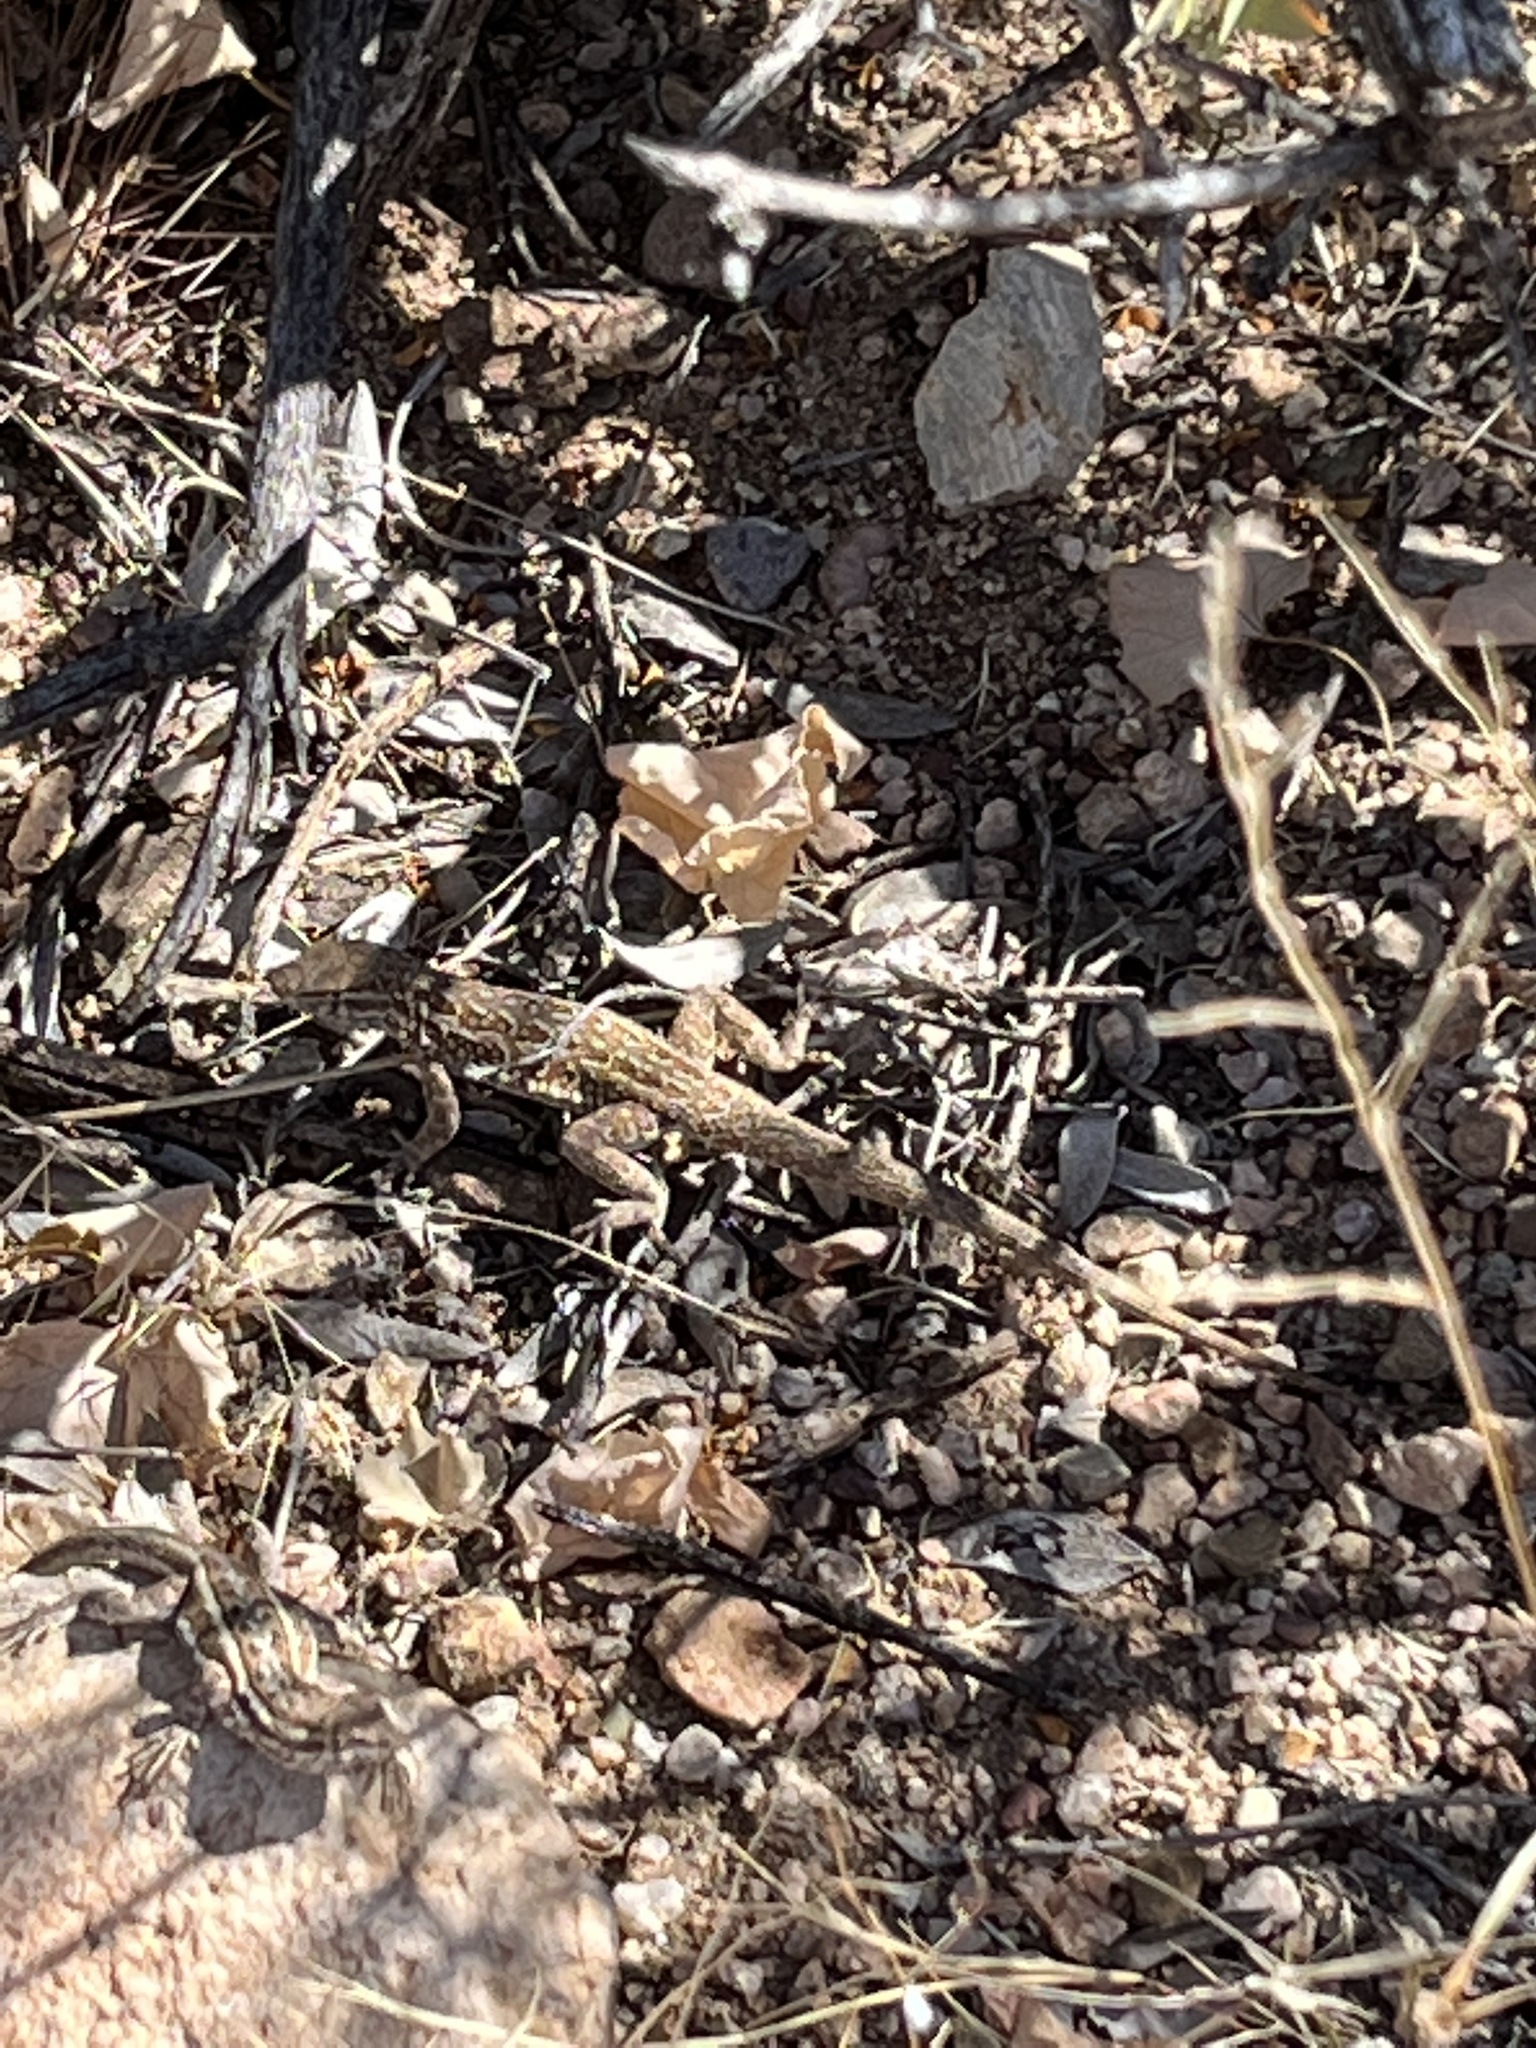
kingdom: Animalia
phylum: Chordata
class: Squamata
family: Phrynosomatidae
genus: Uta
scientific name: Uta stansburiana
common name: Side-blotched lizard
